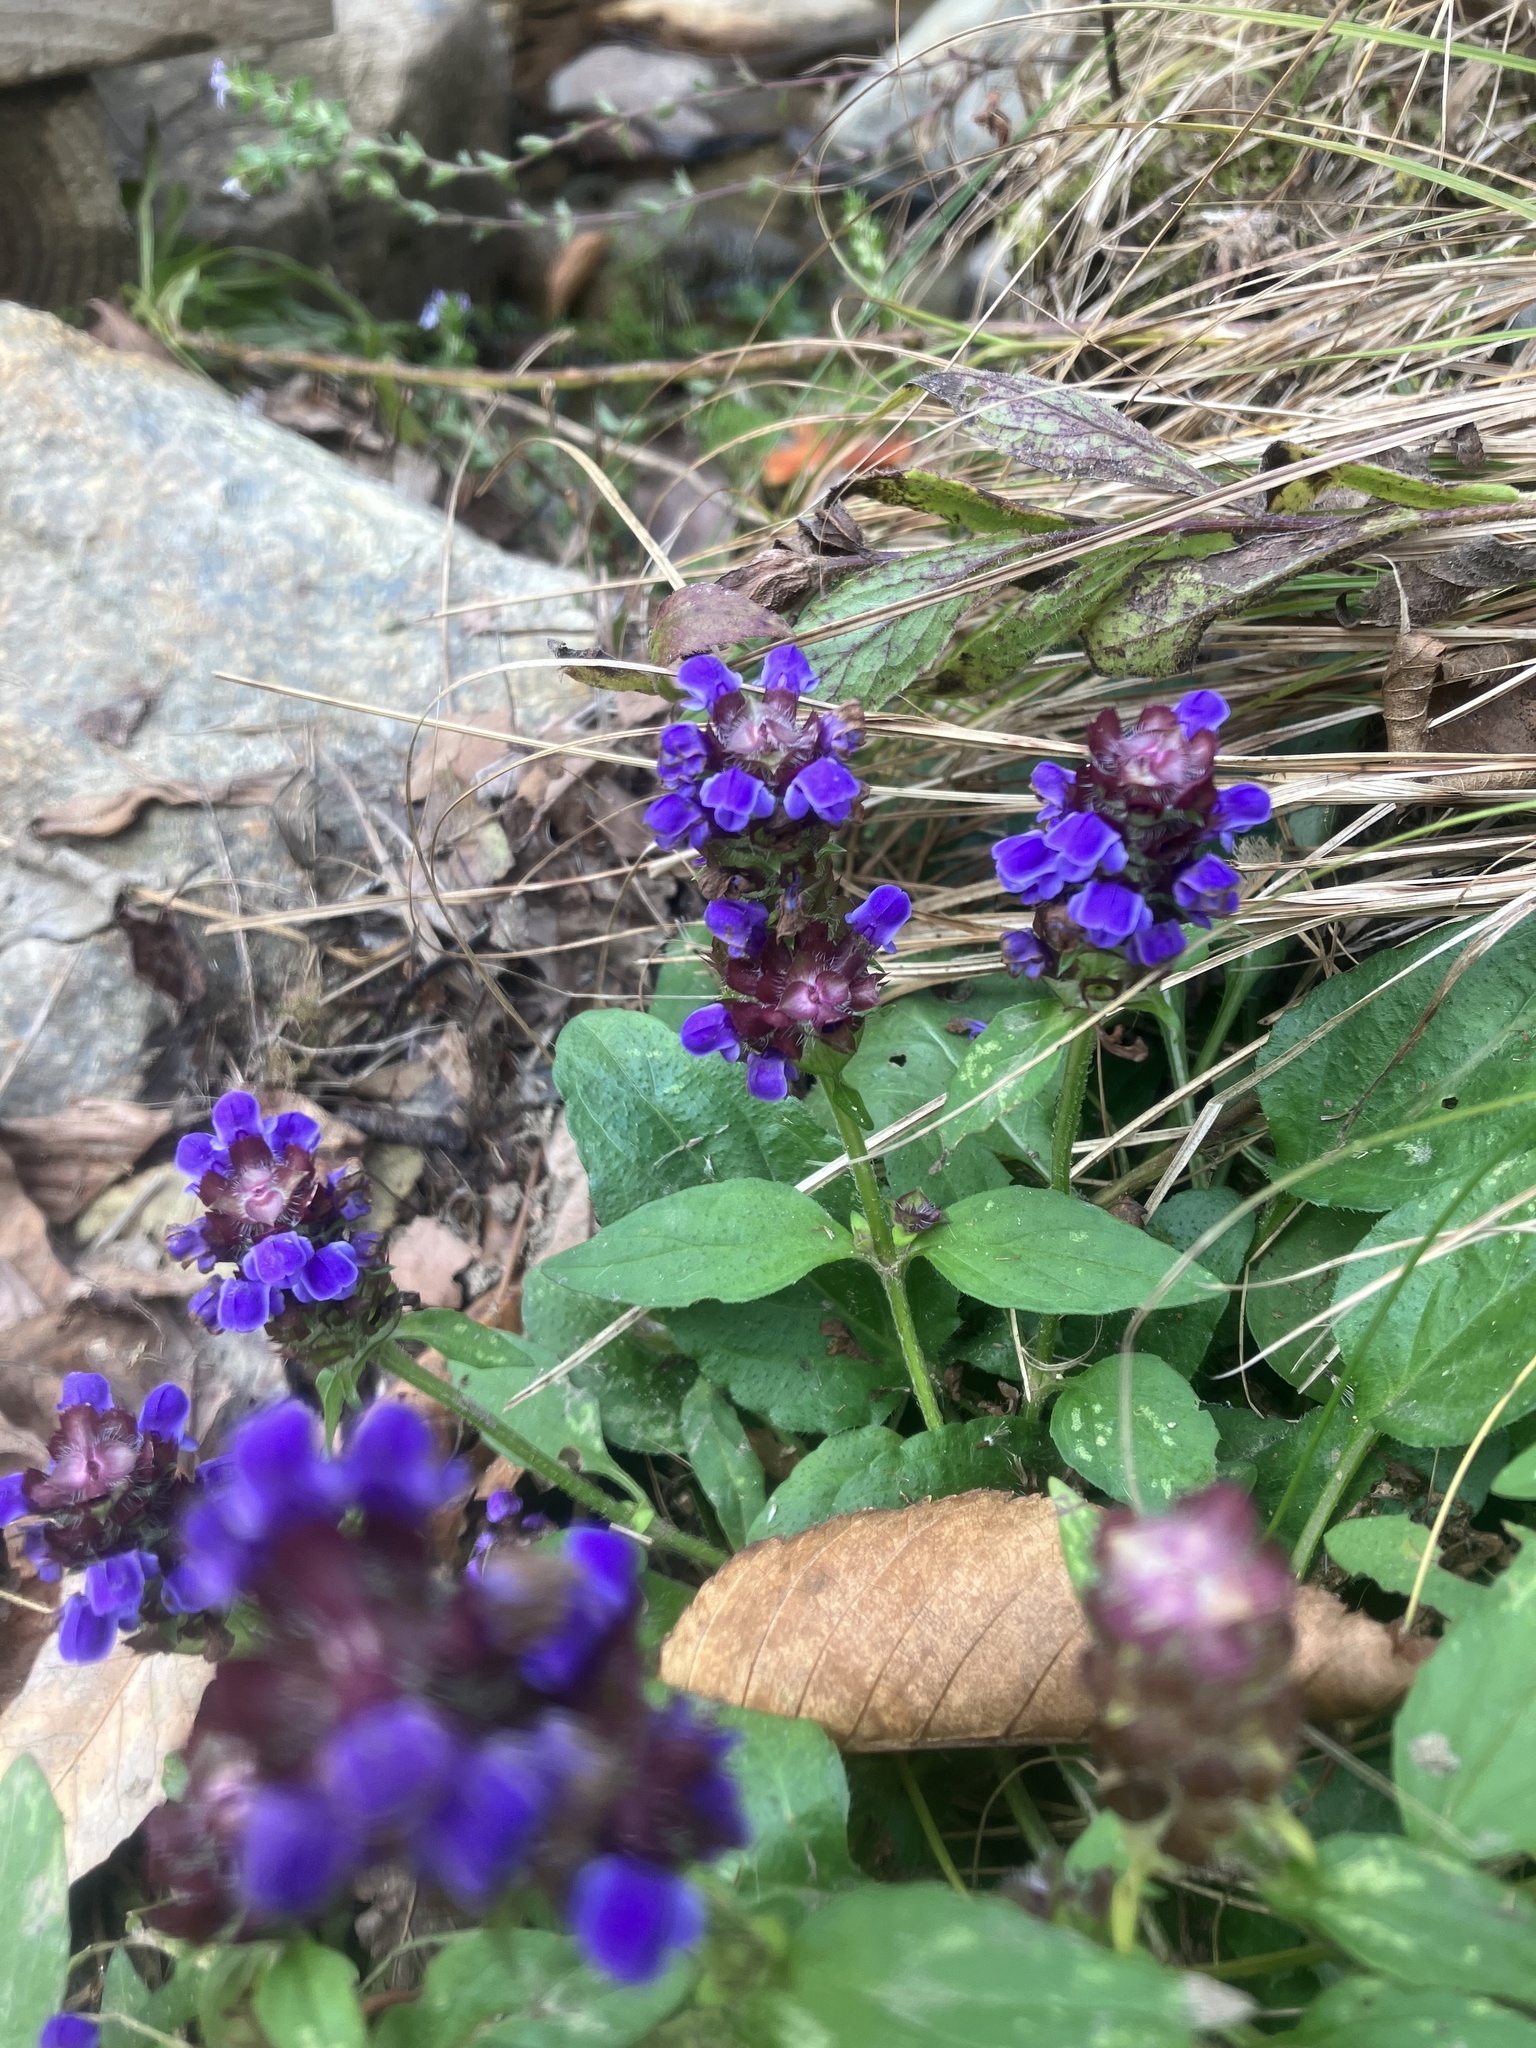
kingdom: Plantae
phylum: Tracheophyta
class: Magnoliopsida
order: Lamiales
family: Lamiaceae
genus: Prunella
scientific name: Prunella vulgaris
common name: Heal-all
